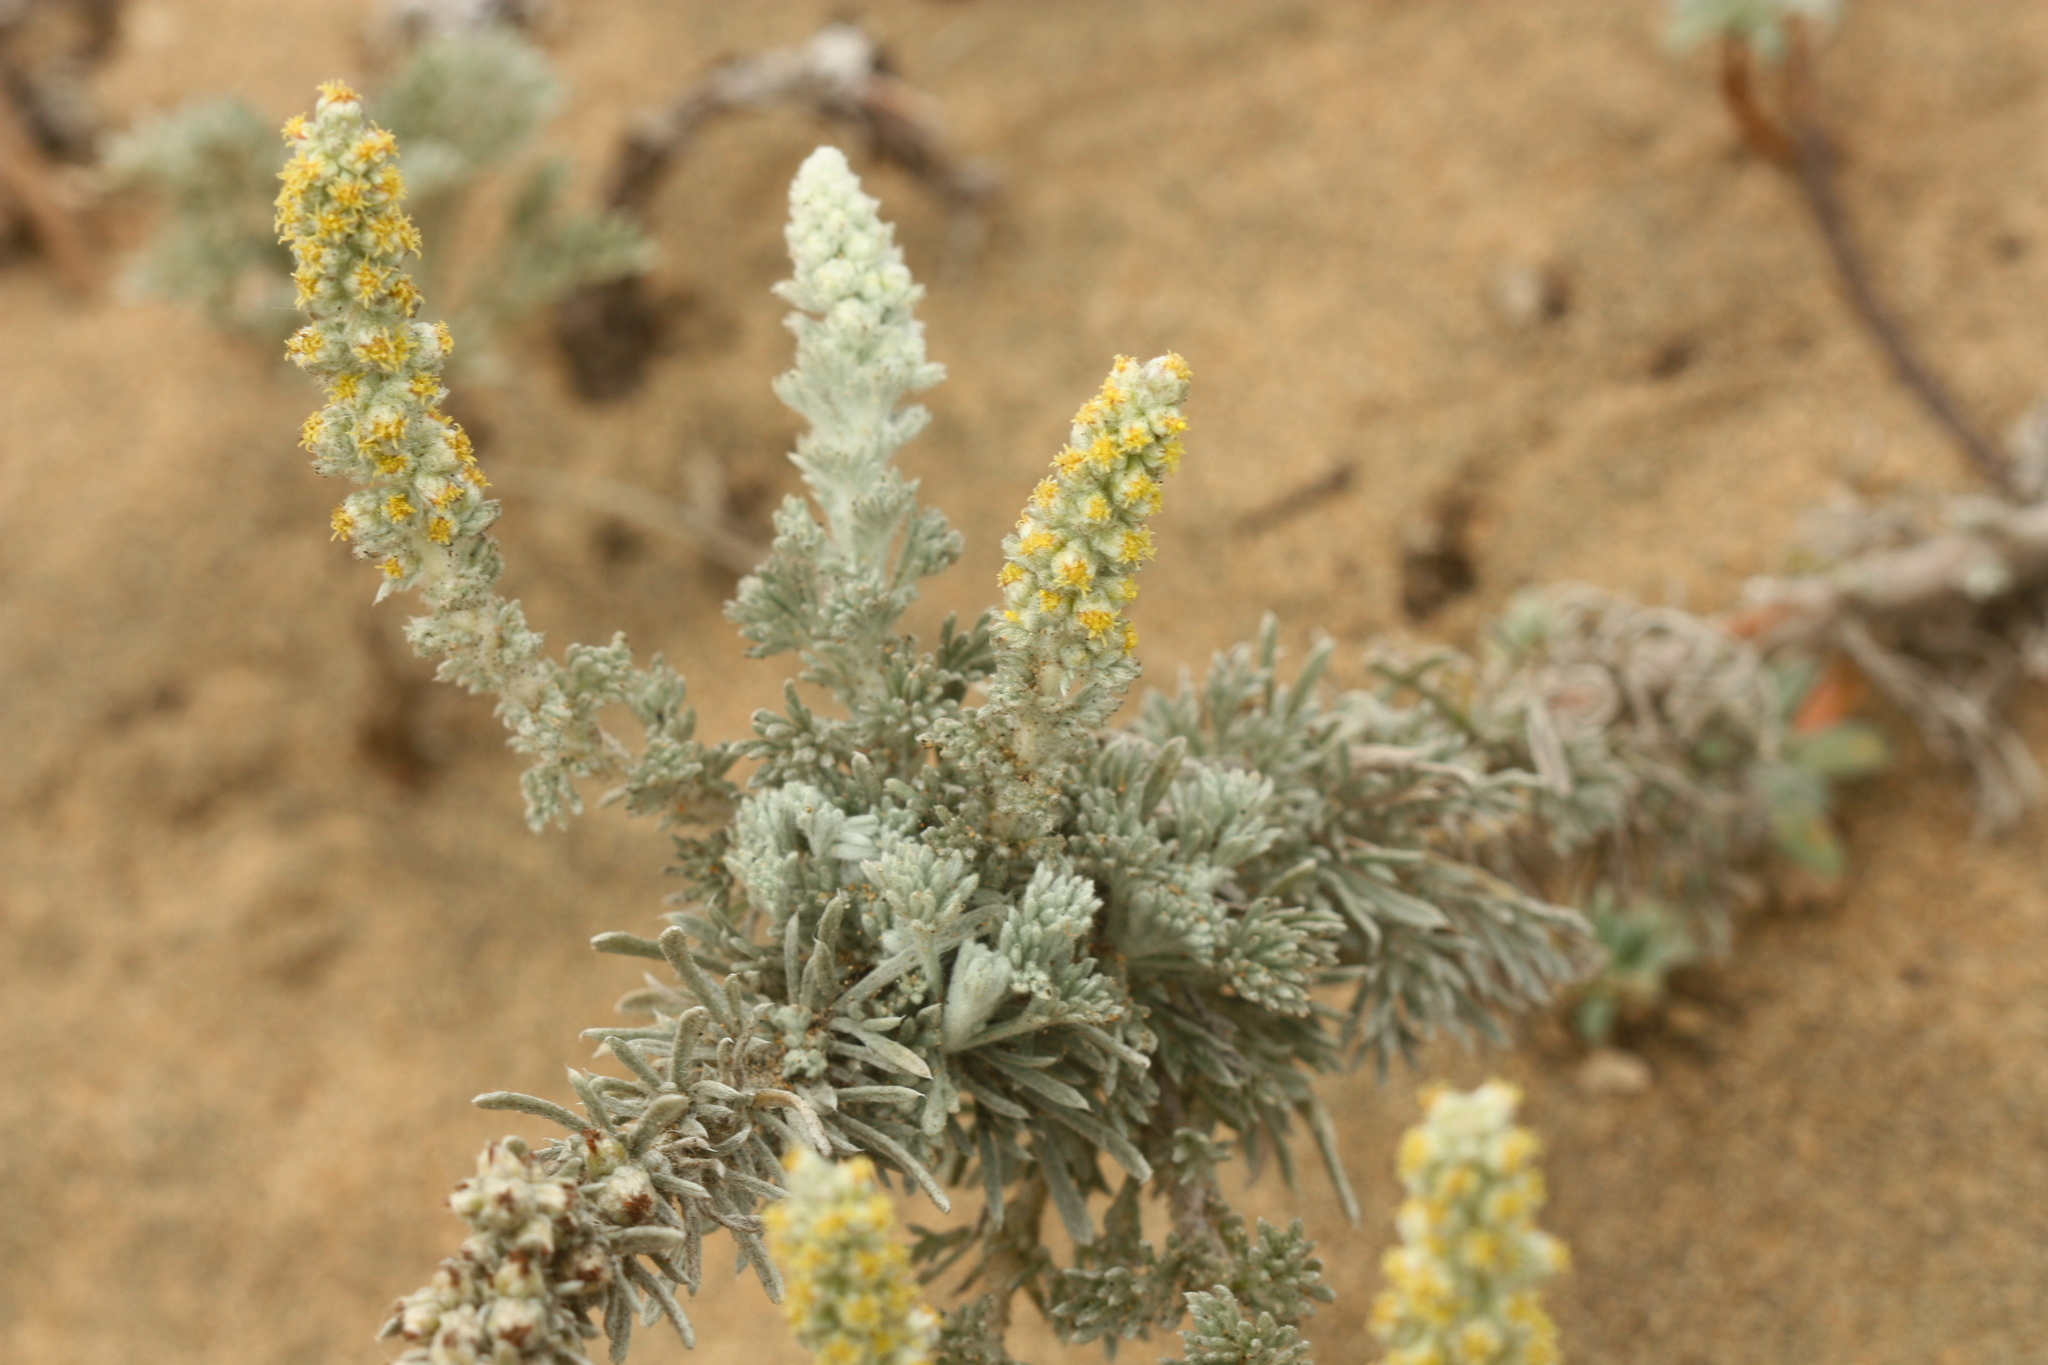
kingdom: Plantae
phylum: Tracheophyta
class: Magnoliopsida
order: Asterales
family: Asteraceae
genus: Artemisia
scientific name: Artemisia pycnocephala
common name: Coastal sagewort
